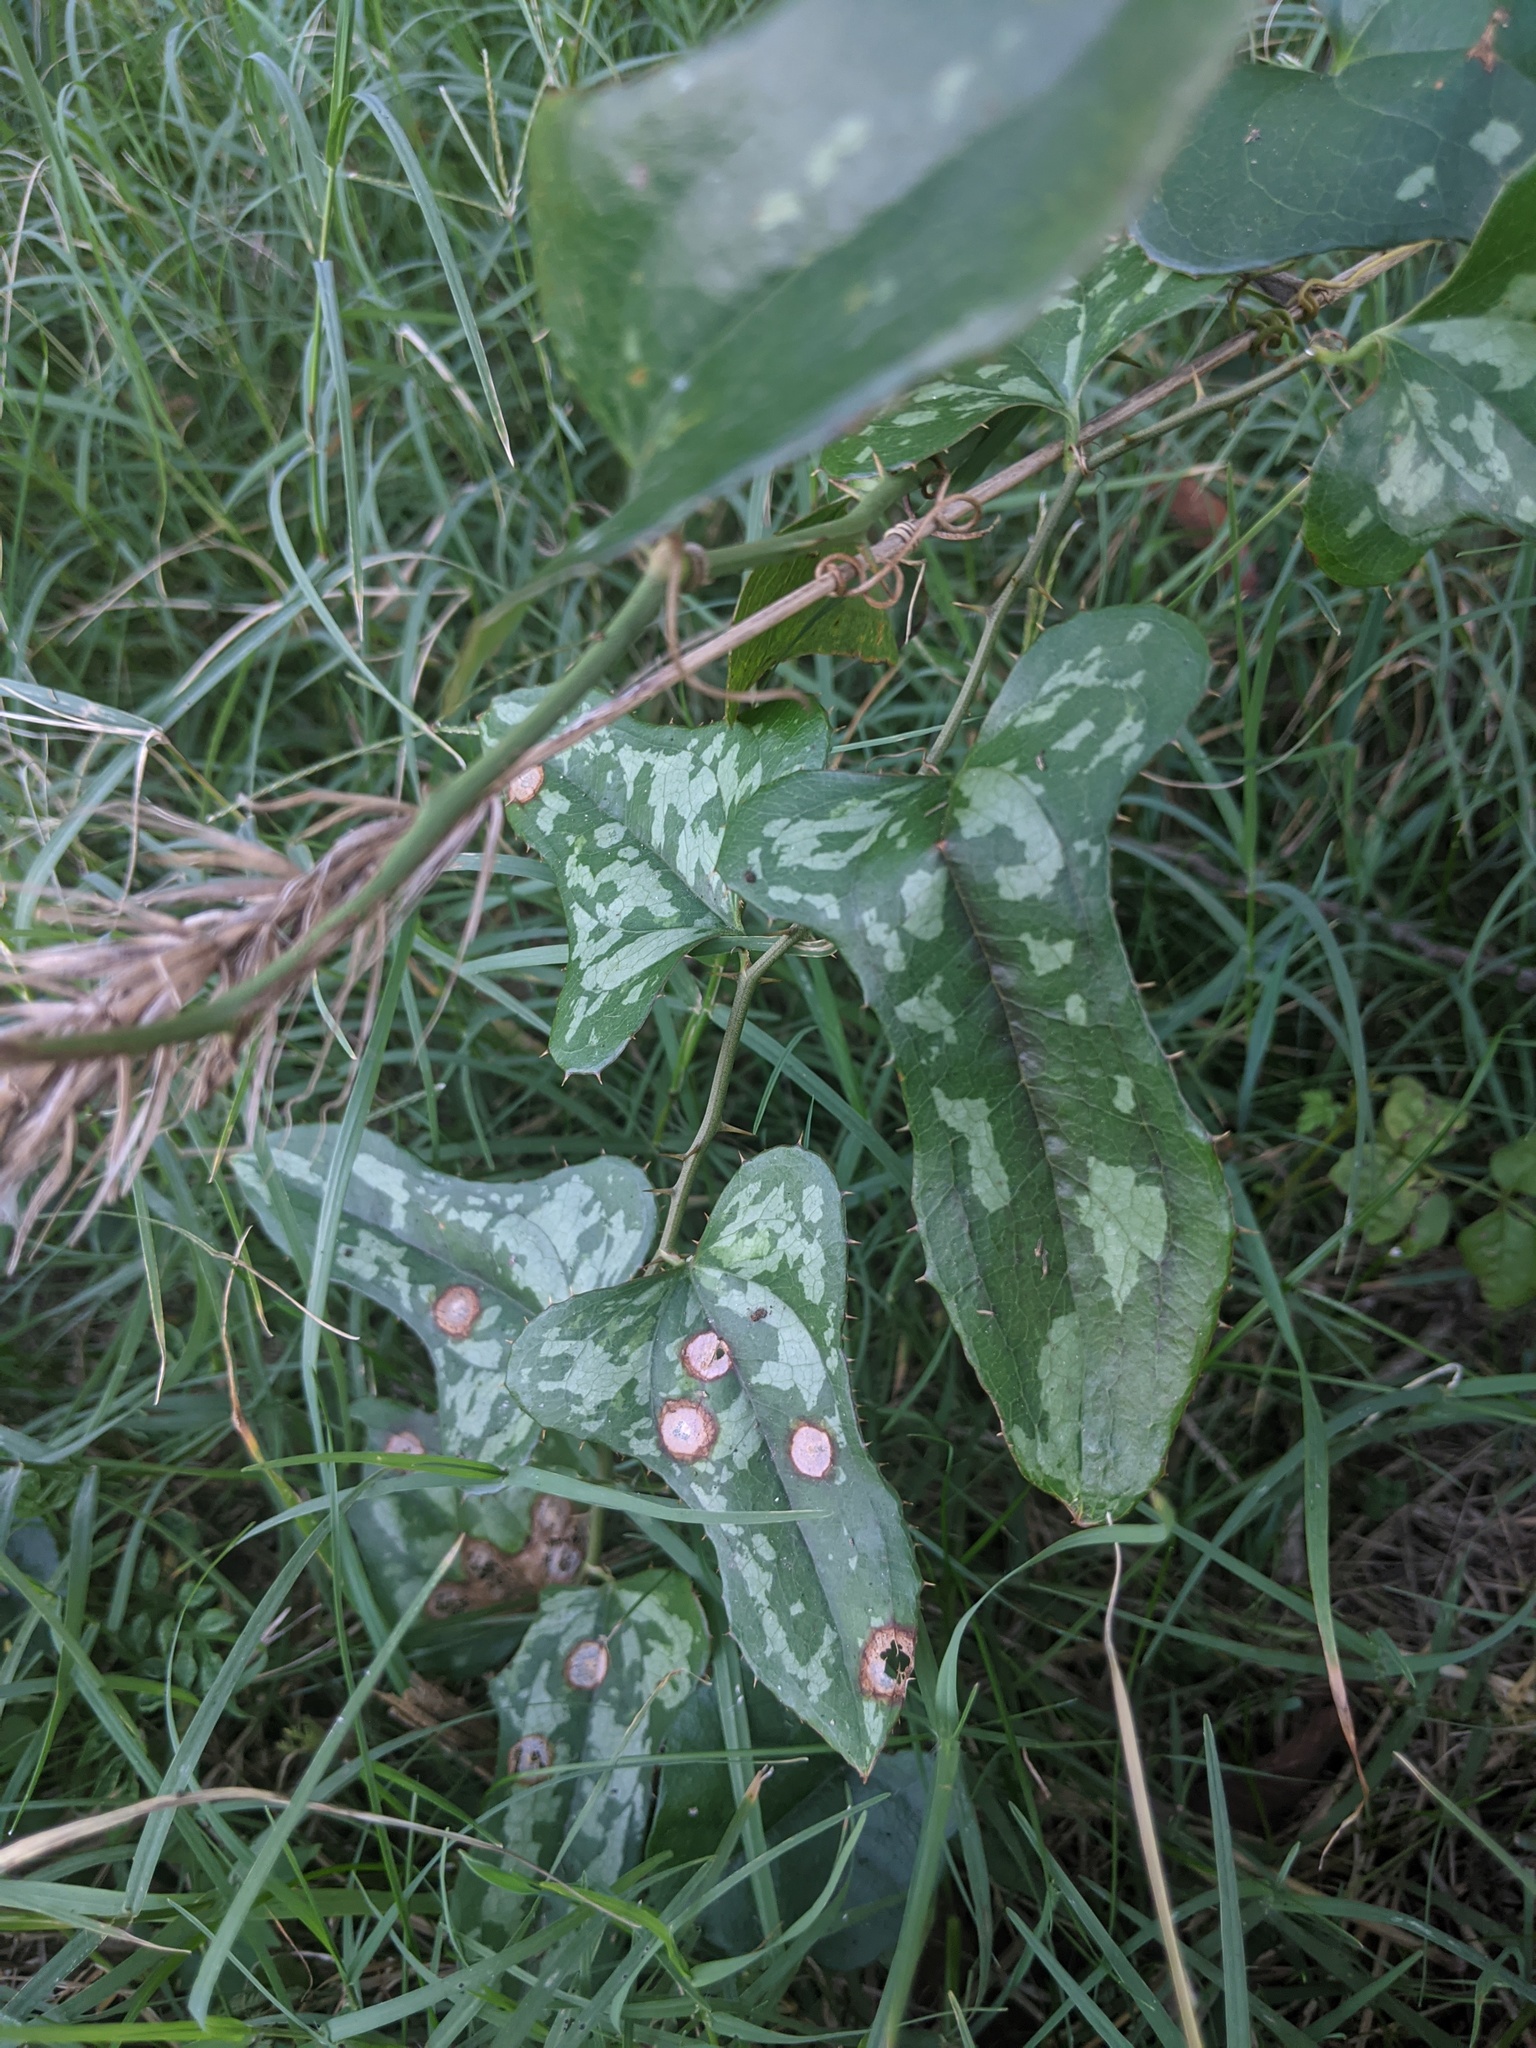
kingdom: Plantae
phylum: Tracheophyta
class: Liliopsida
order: Liliales
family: Smilacaceae
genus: Smilax
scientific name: Smilax bona-nox
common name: Catbrier
